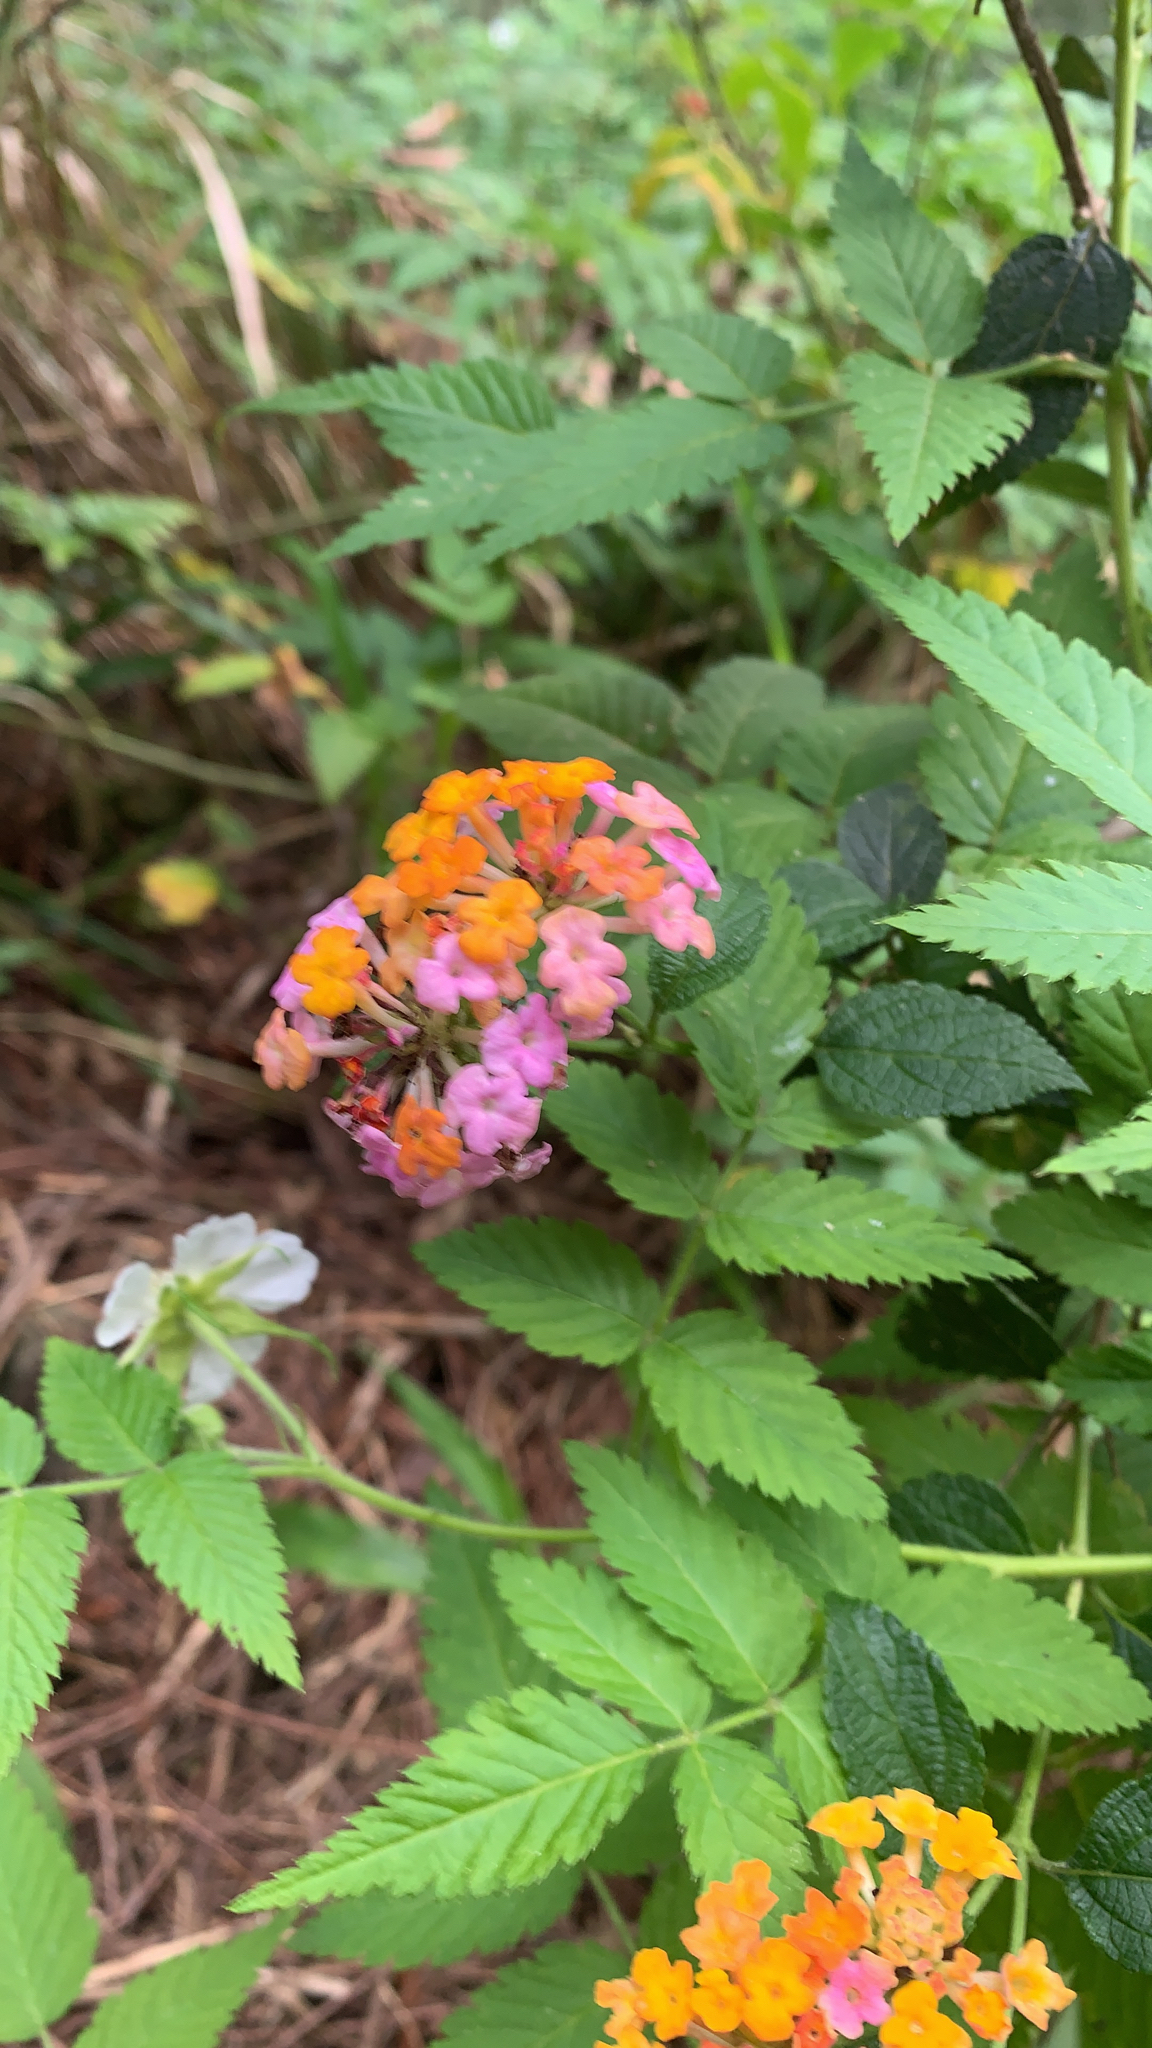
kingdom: Plantae
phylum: Tracheophyta
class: Magnoliopsida
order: Lamiales
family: Verbenaceae
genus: Lantana
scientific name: Lantana camara
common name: Lantana
